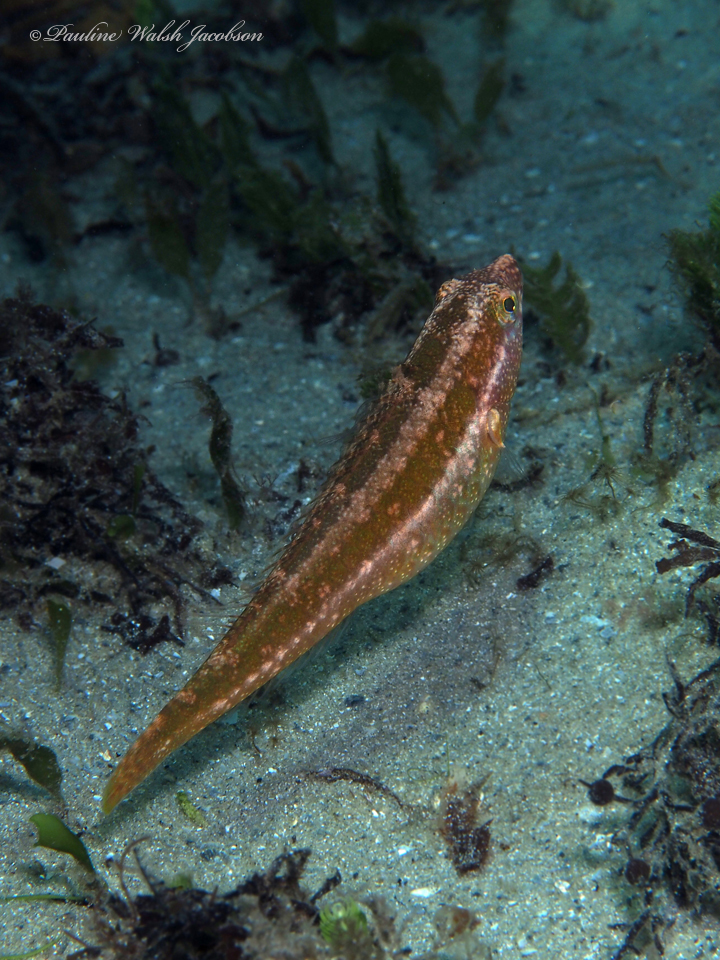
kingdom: Animalia
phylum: Chordata
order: Perciformes
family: Scaridae
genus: Cryptotomus
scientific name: Cryptotomus roseus
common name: Bluelip parrotfish
